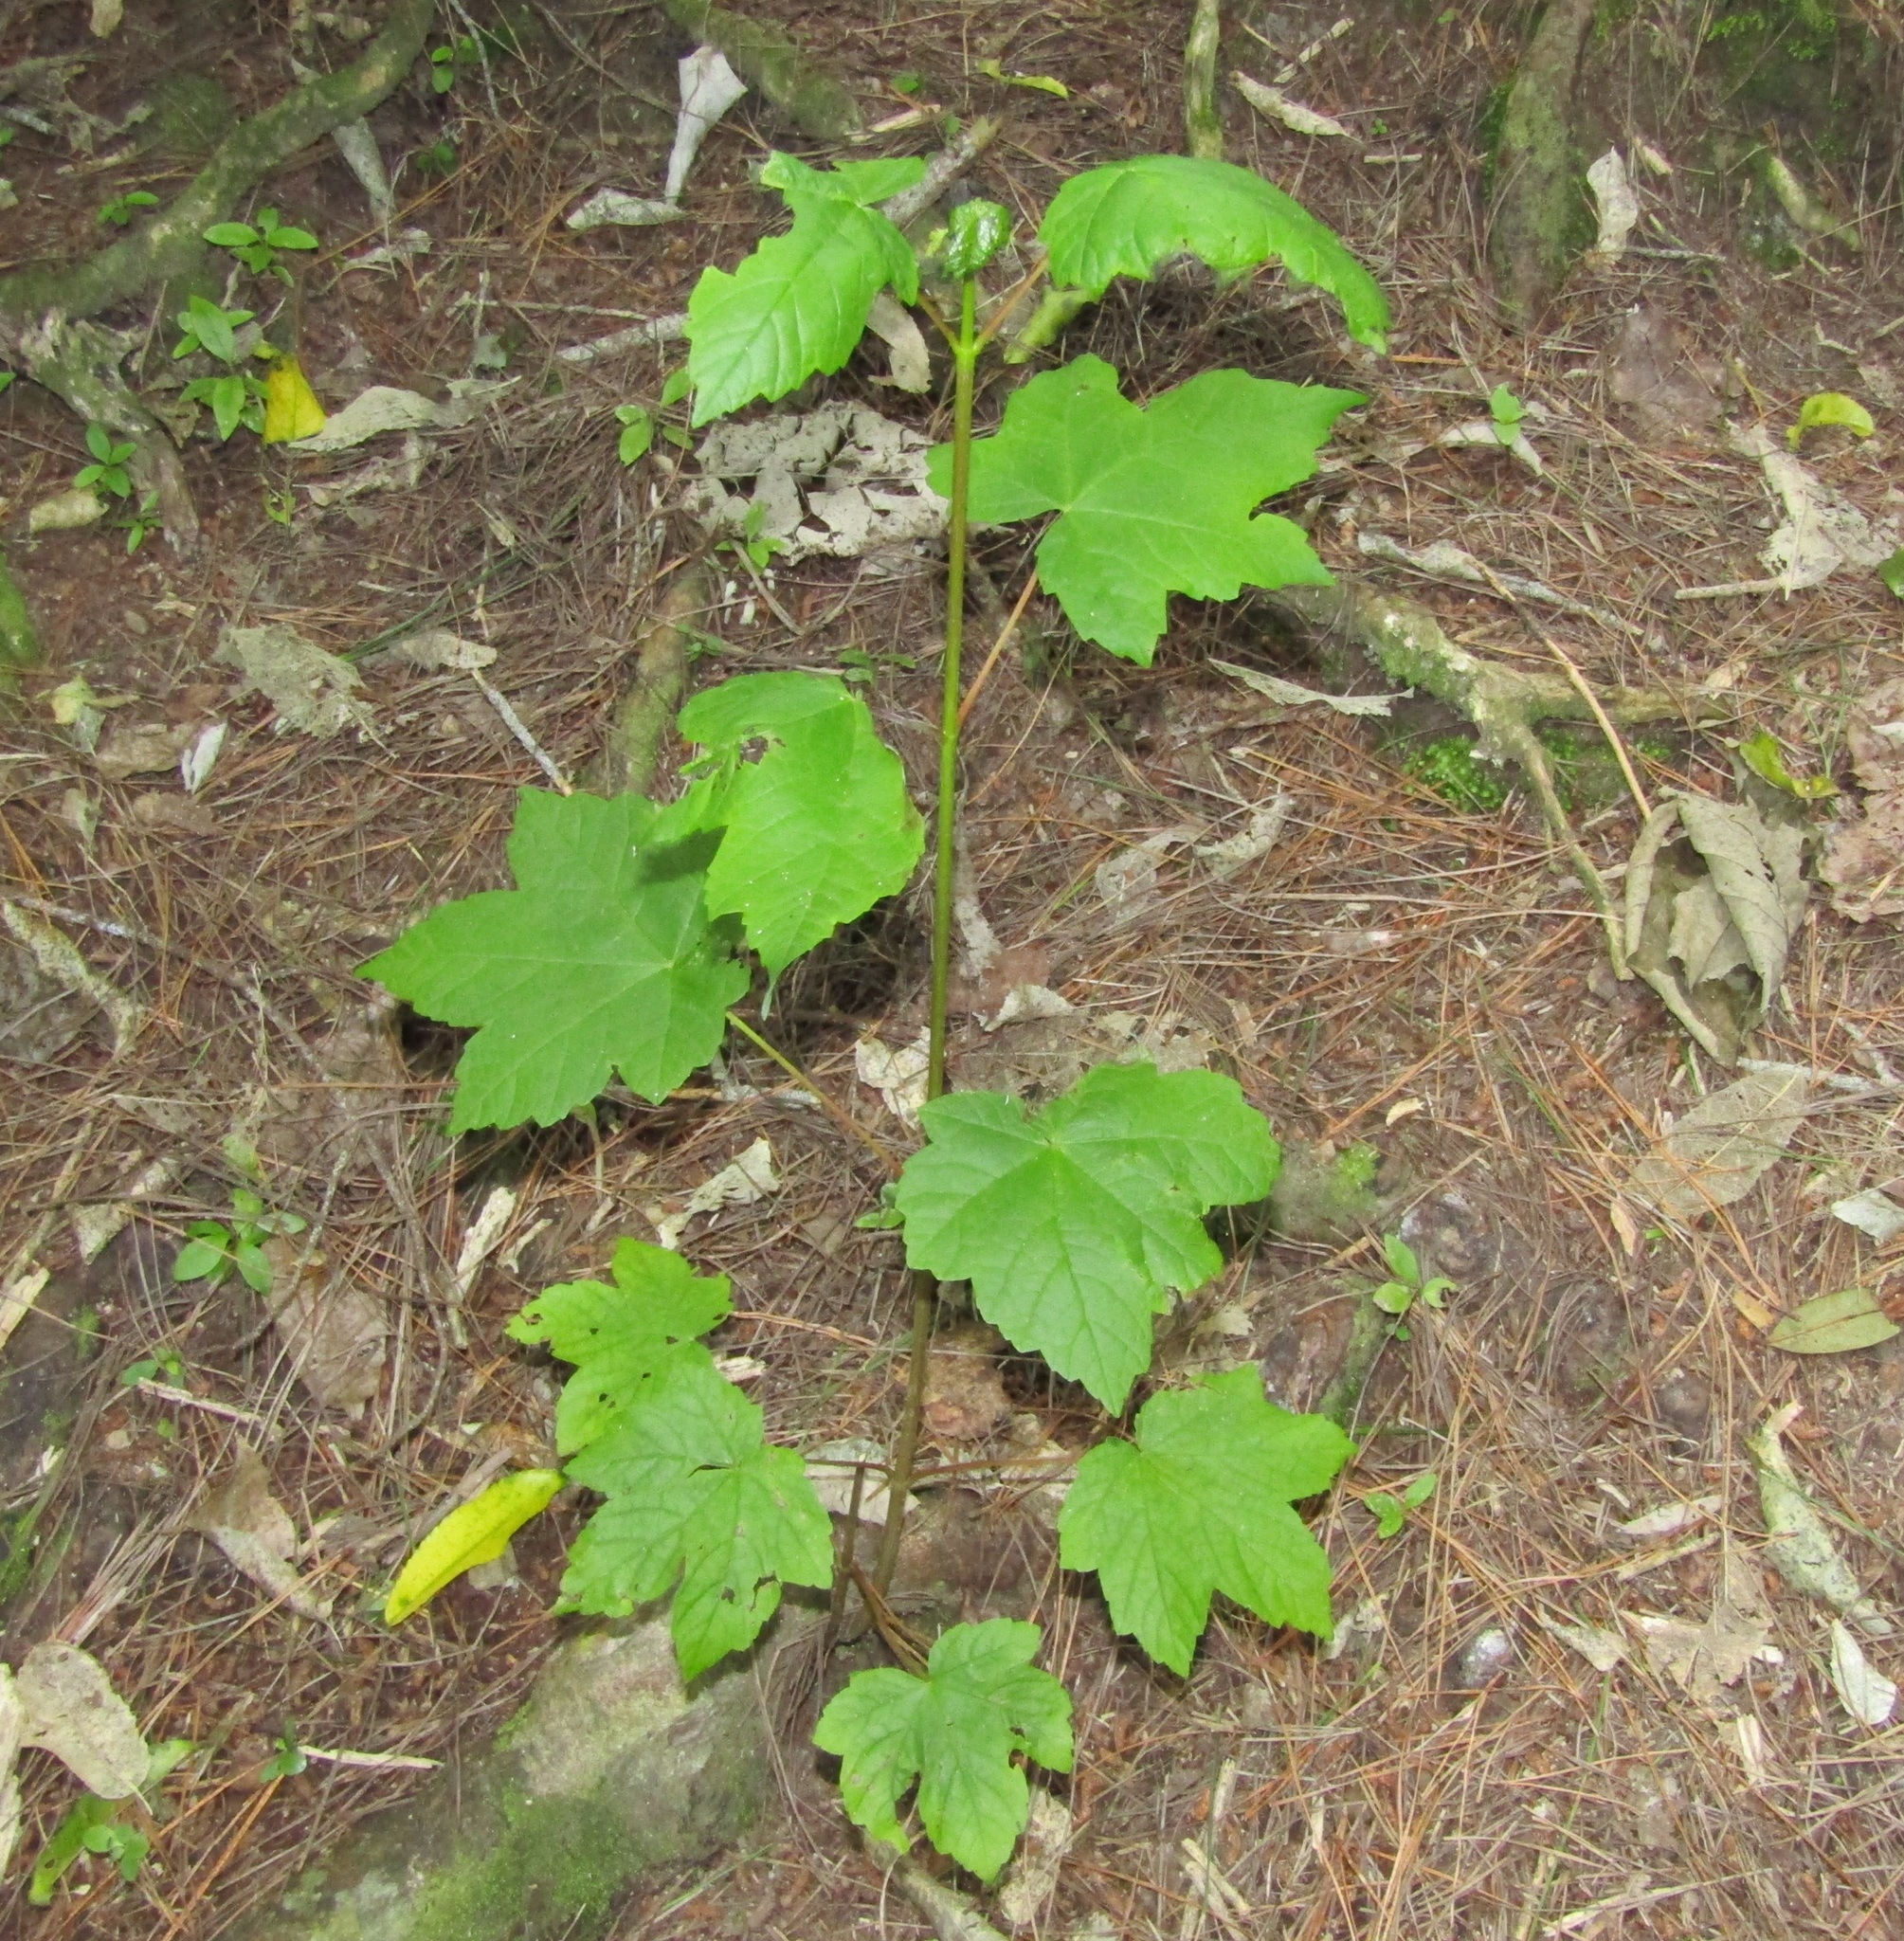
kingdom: Plantae
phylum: Tracheophyta
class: Magnoliopsida
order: Sapindales
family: Sapindaceae
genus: Acer
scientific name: Acer pseudoplatanus
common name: Sycamore
